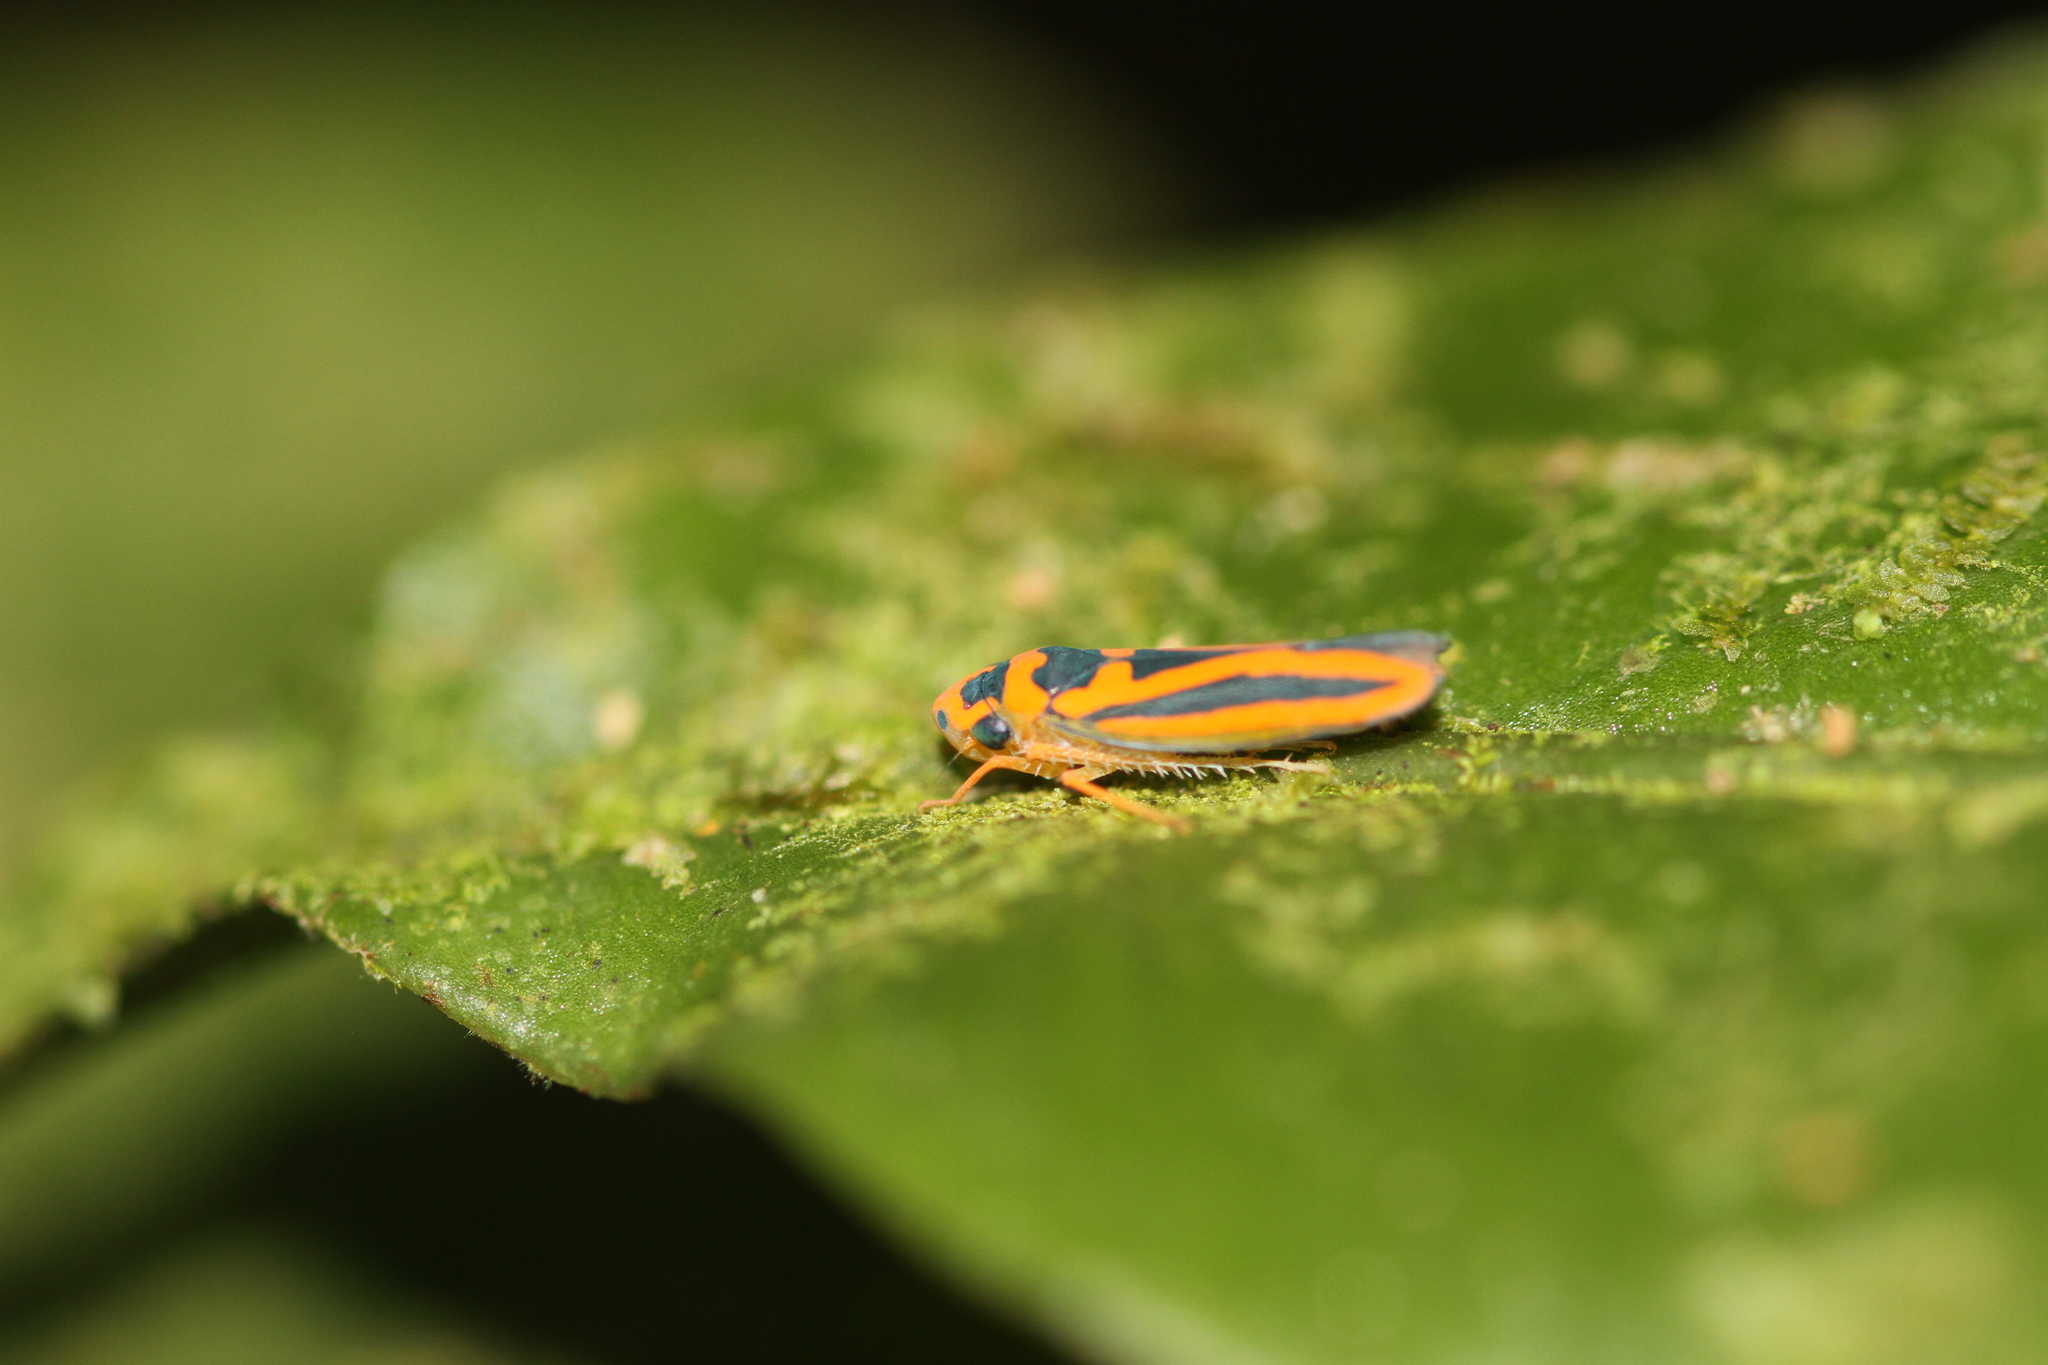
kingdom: Animalia
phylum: Arthropoda
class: Insecta
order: Hemiptera
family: Cicadellidae
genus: Palingonalia
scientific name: Palingonalia bigutta
